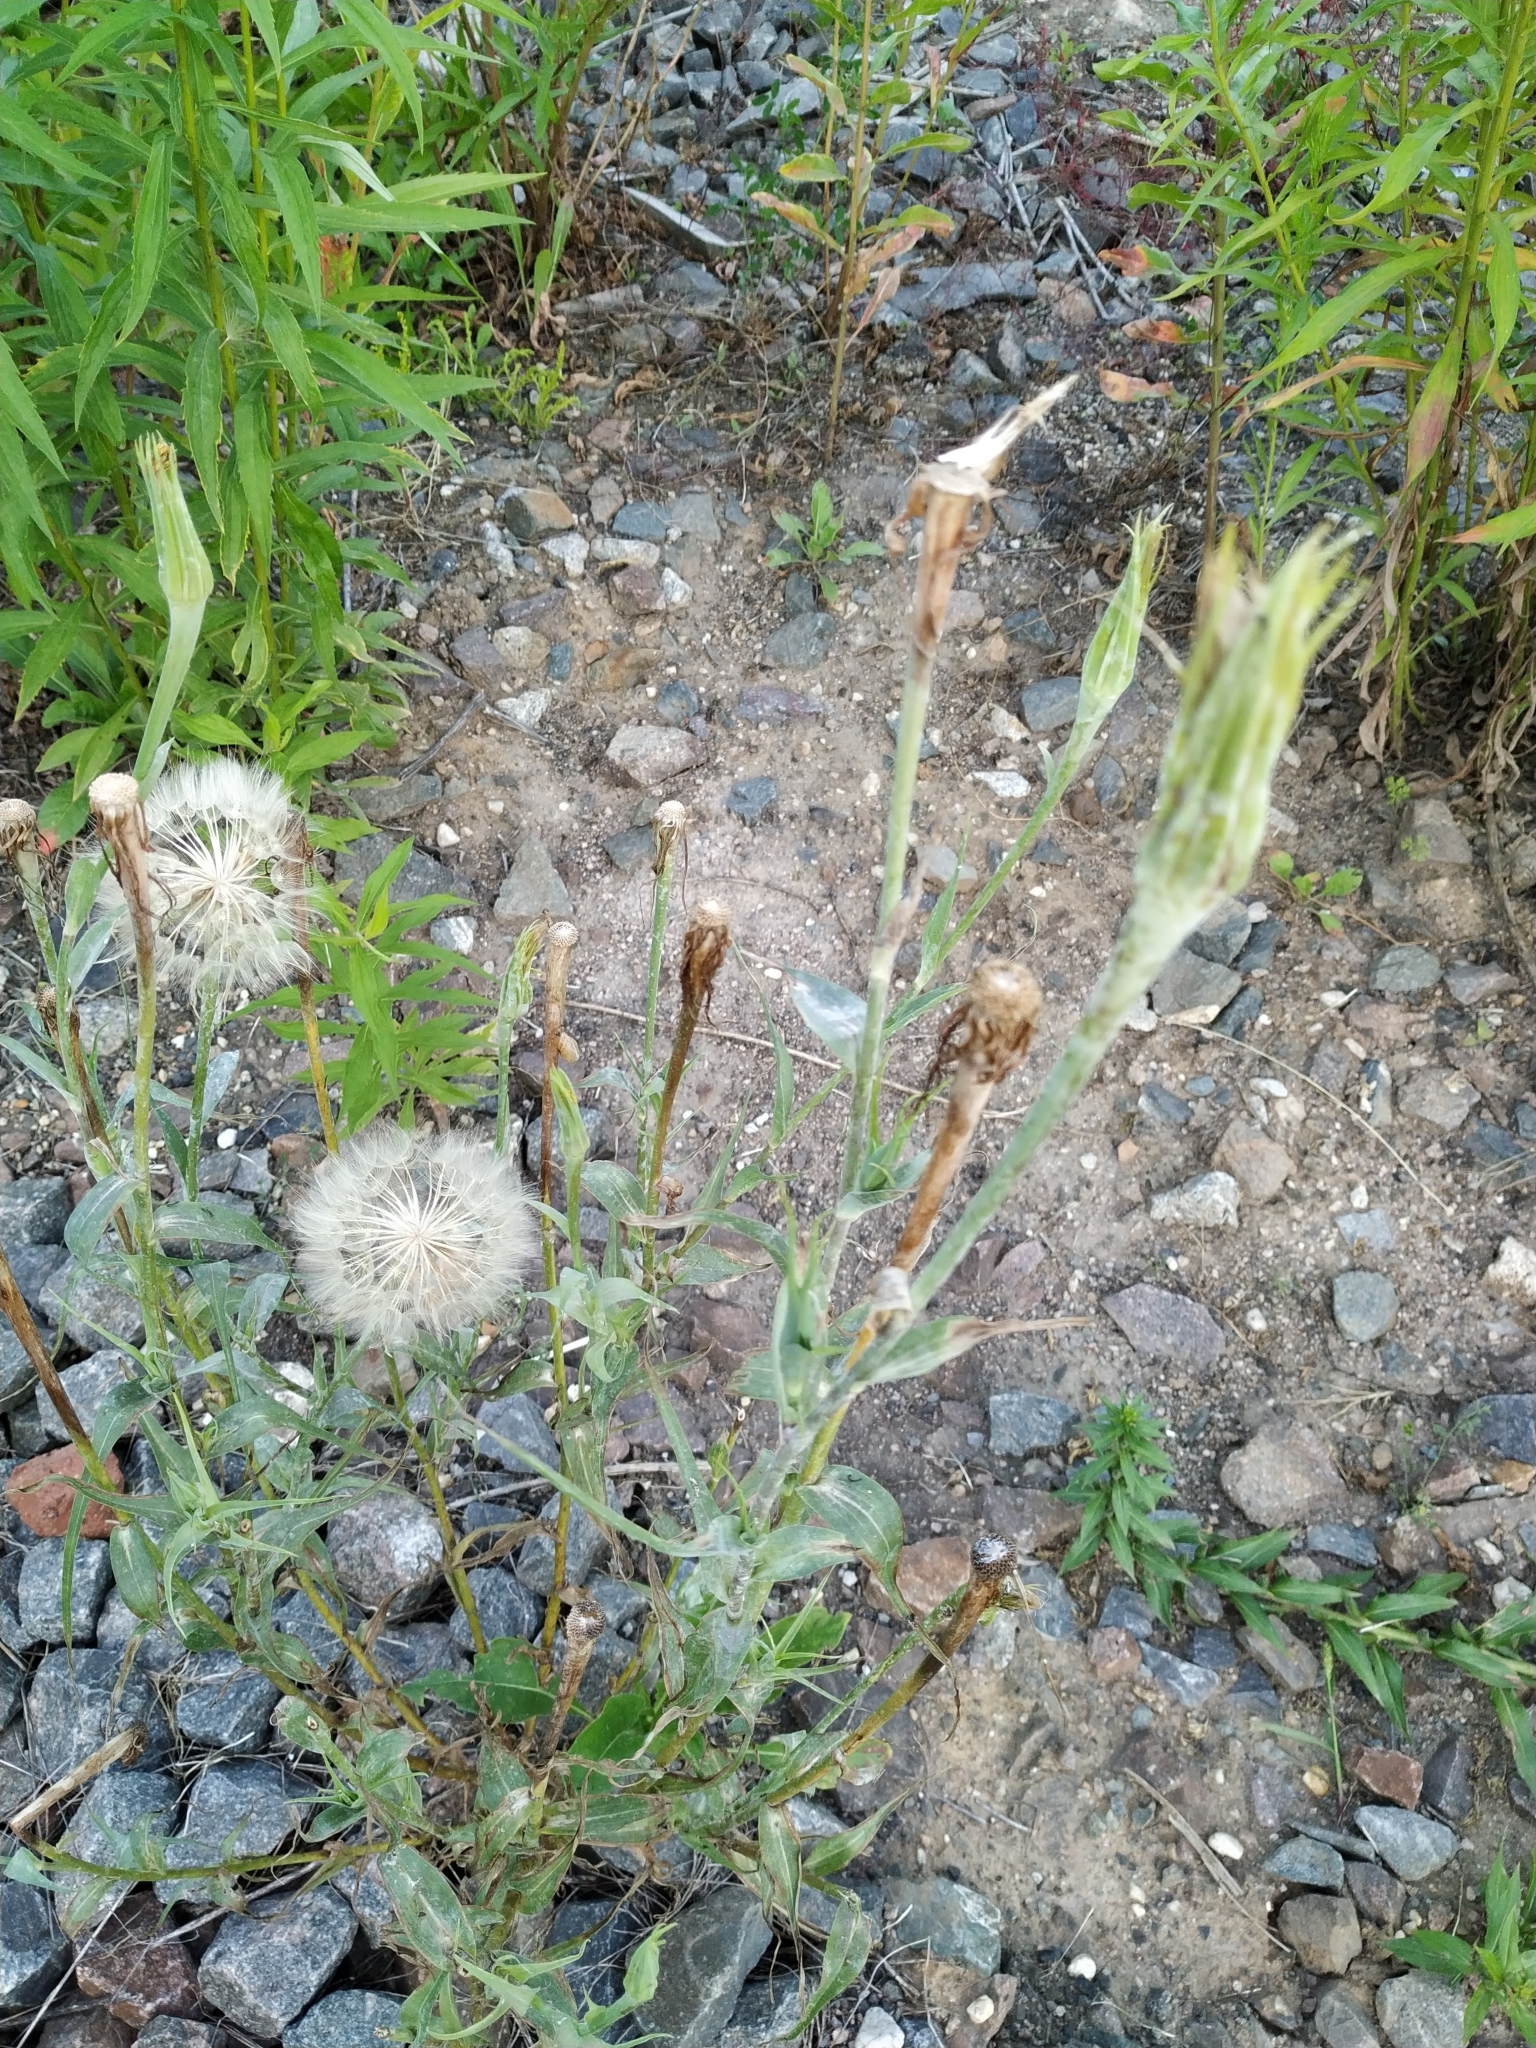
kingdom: Plantae
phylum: Tracheophyta
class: Magnoliopsida
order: Asterales
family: Asteraceae
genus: Tragopogon
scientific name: Tragopogon dubius
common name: Yellow salsify
